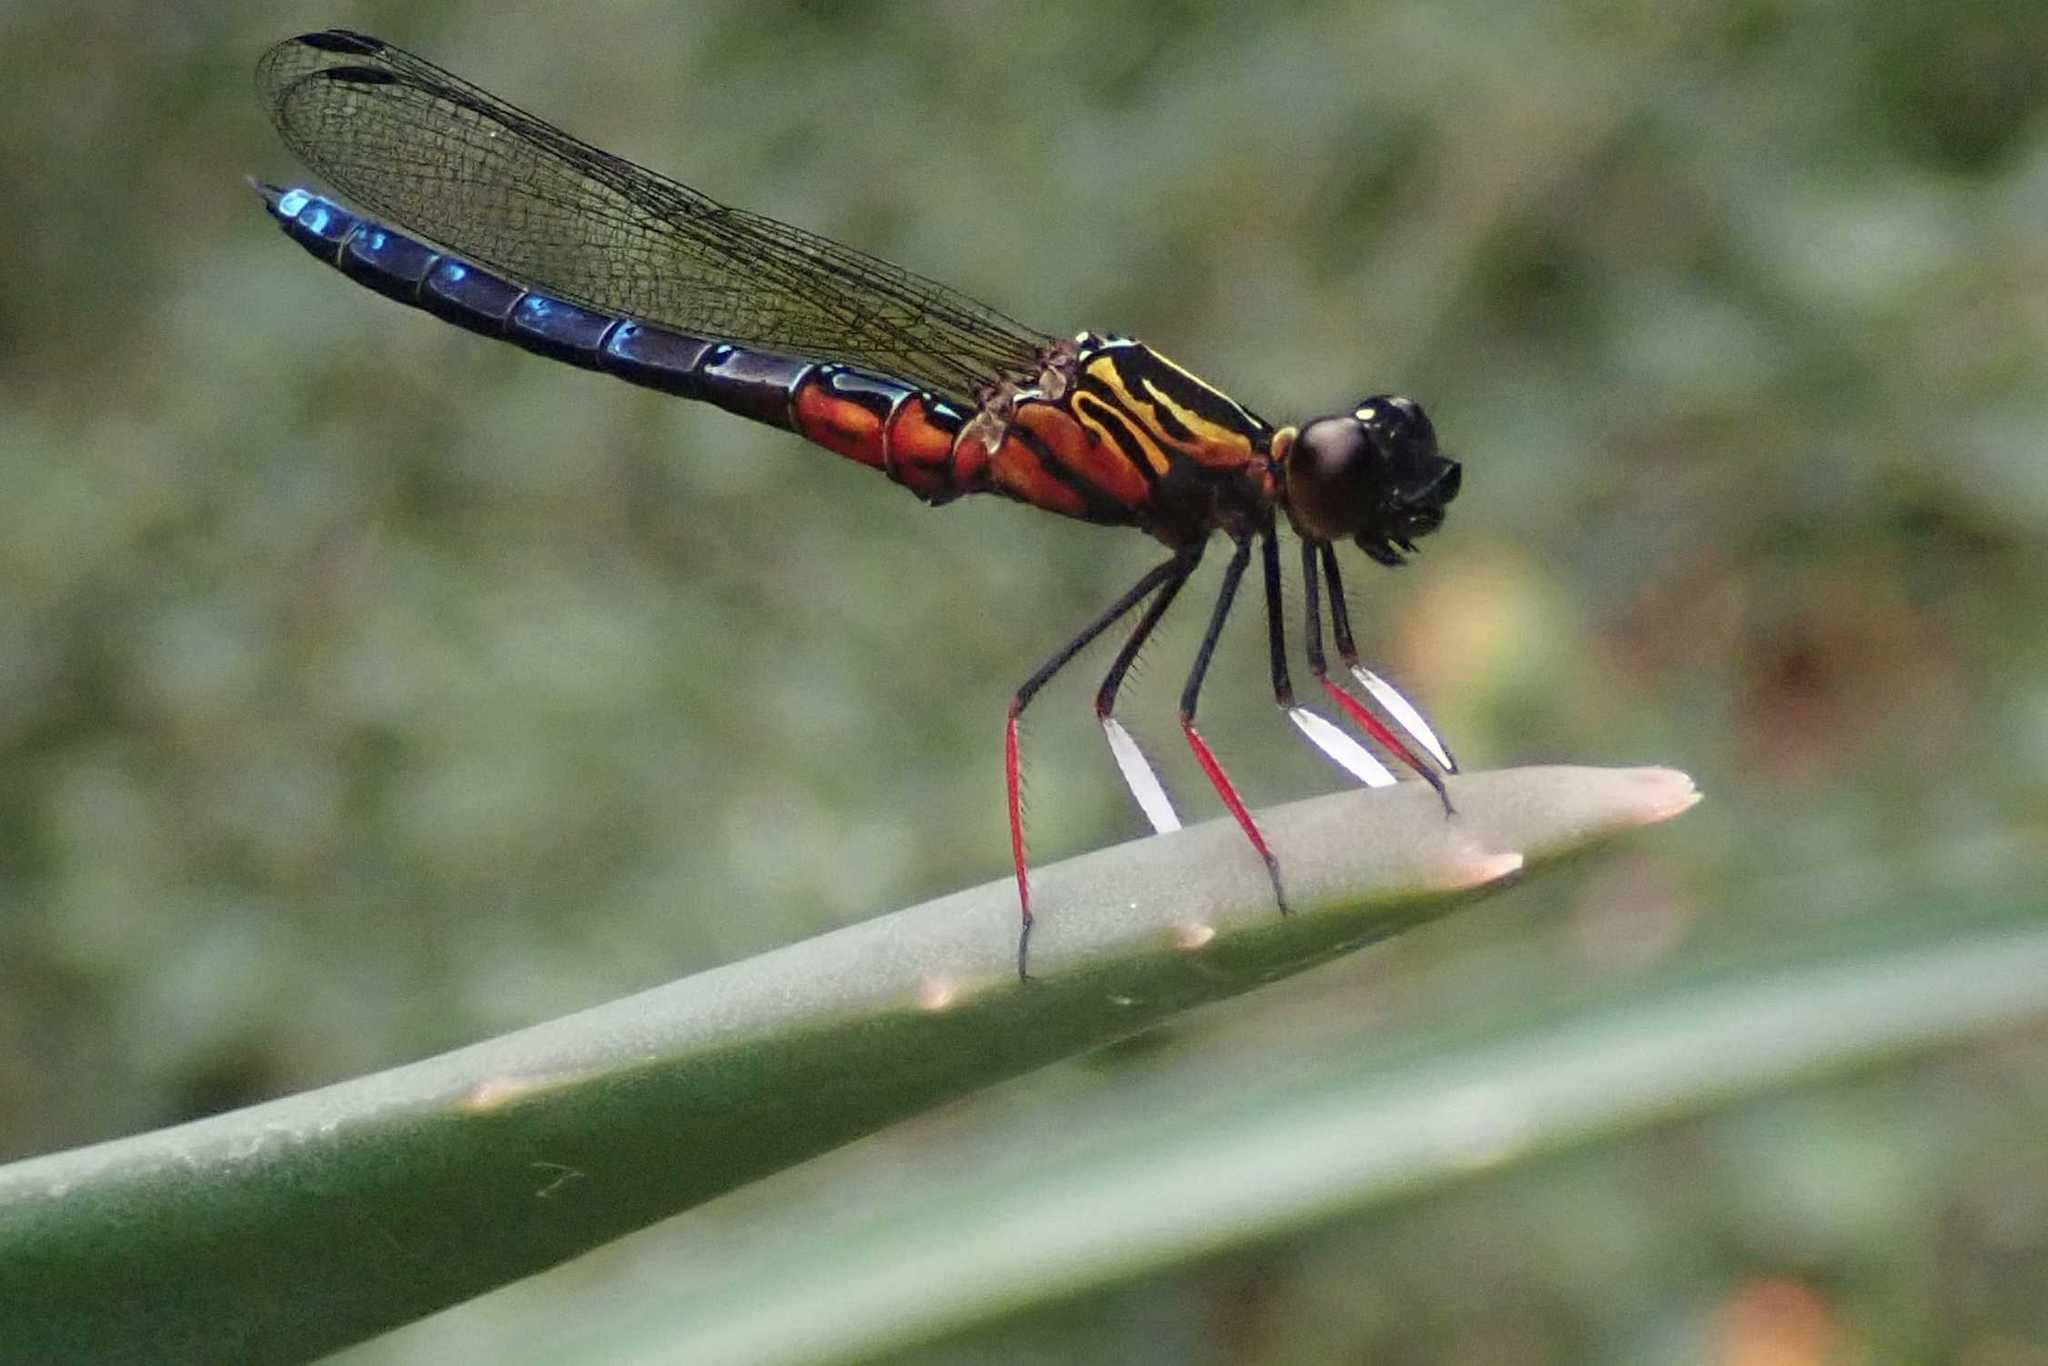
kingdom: Animalia
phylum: Arthropoda
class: Insecta
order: Odonata
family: Chlorocyphidae
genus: Platycypha
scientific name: Platycypha caligata
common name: Dancing jewel
